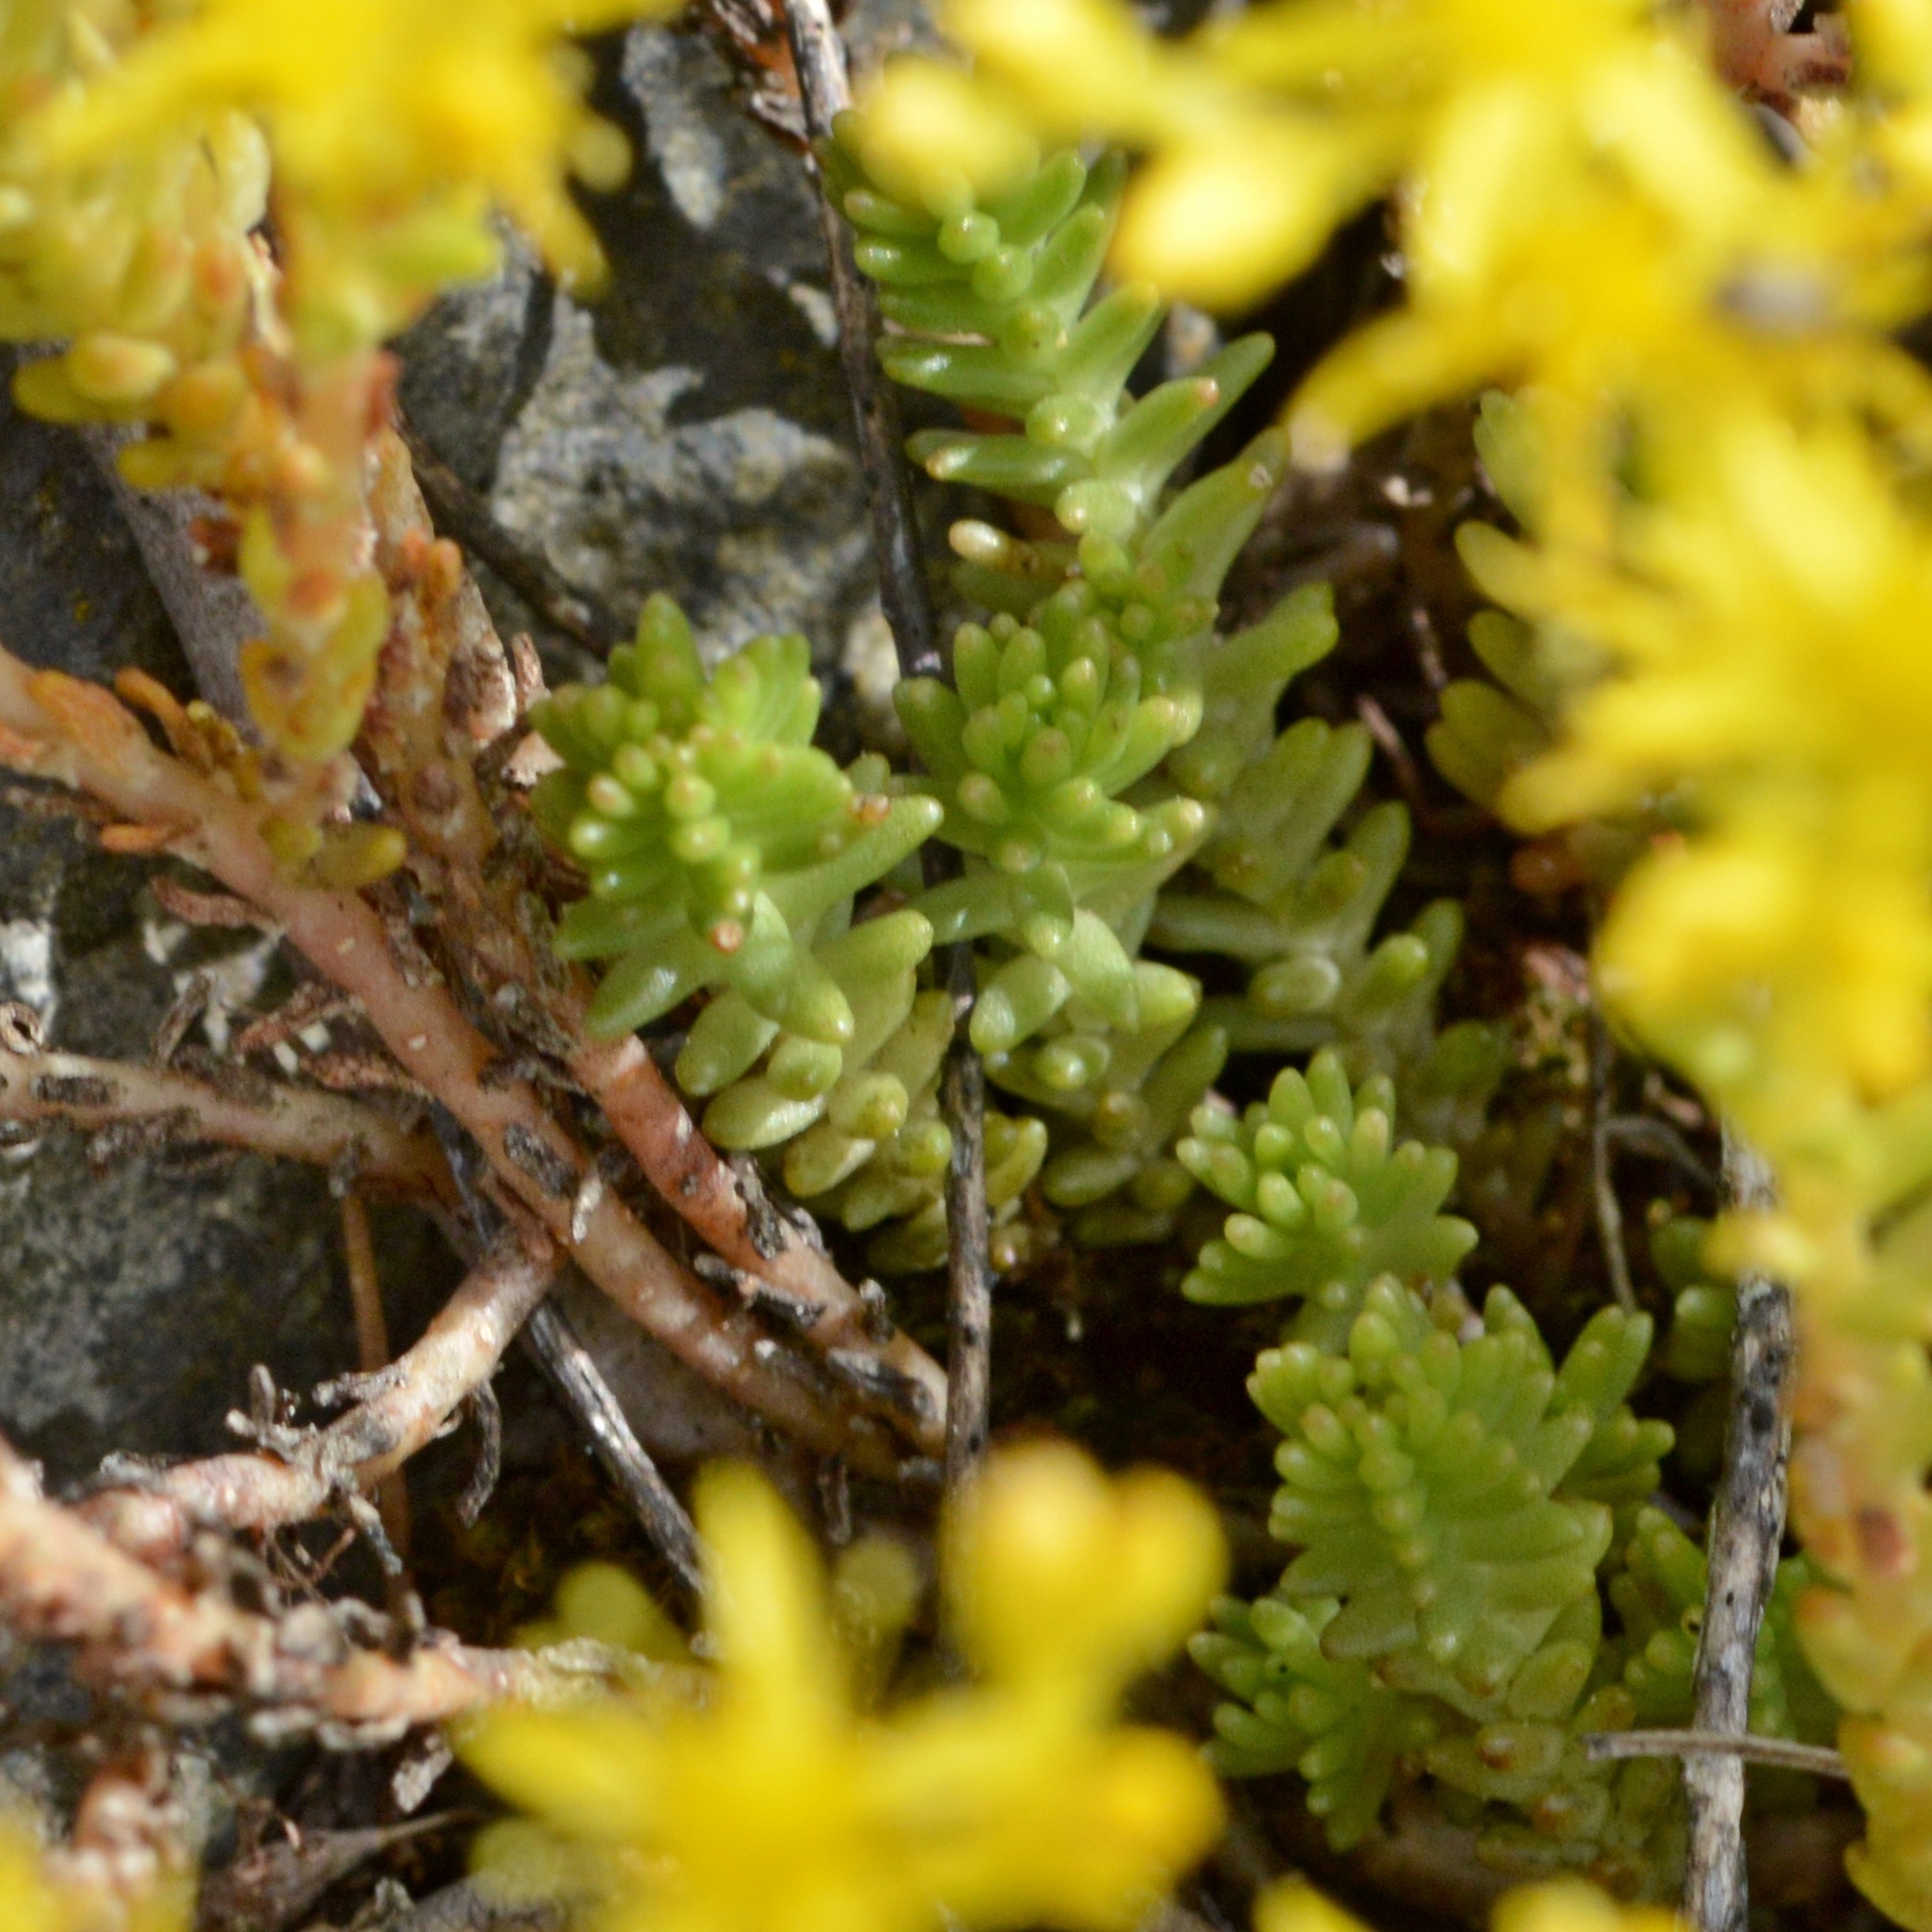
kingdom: Plantae
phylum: Tracheophyta
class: Magnoliopsida
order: Saxifragales
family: Crassulaceae
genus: Sedum
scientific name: Sedum sexangulare
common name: Tasteless stonecrop
